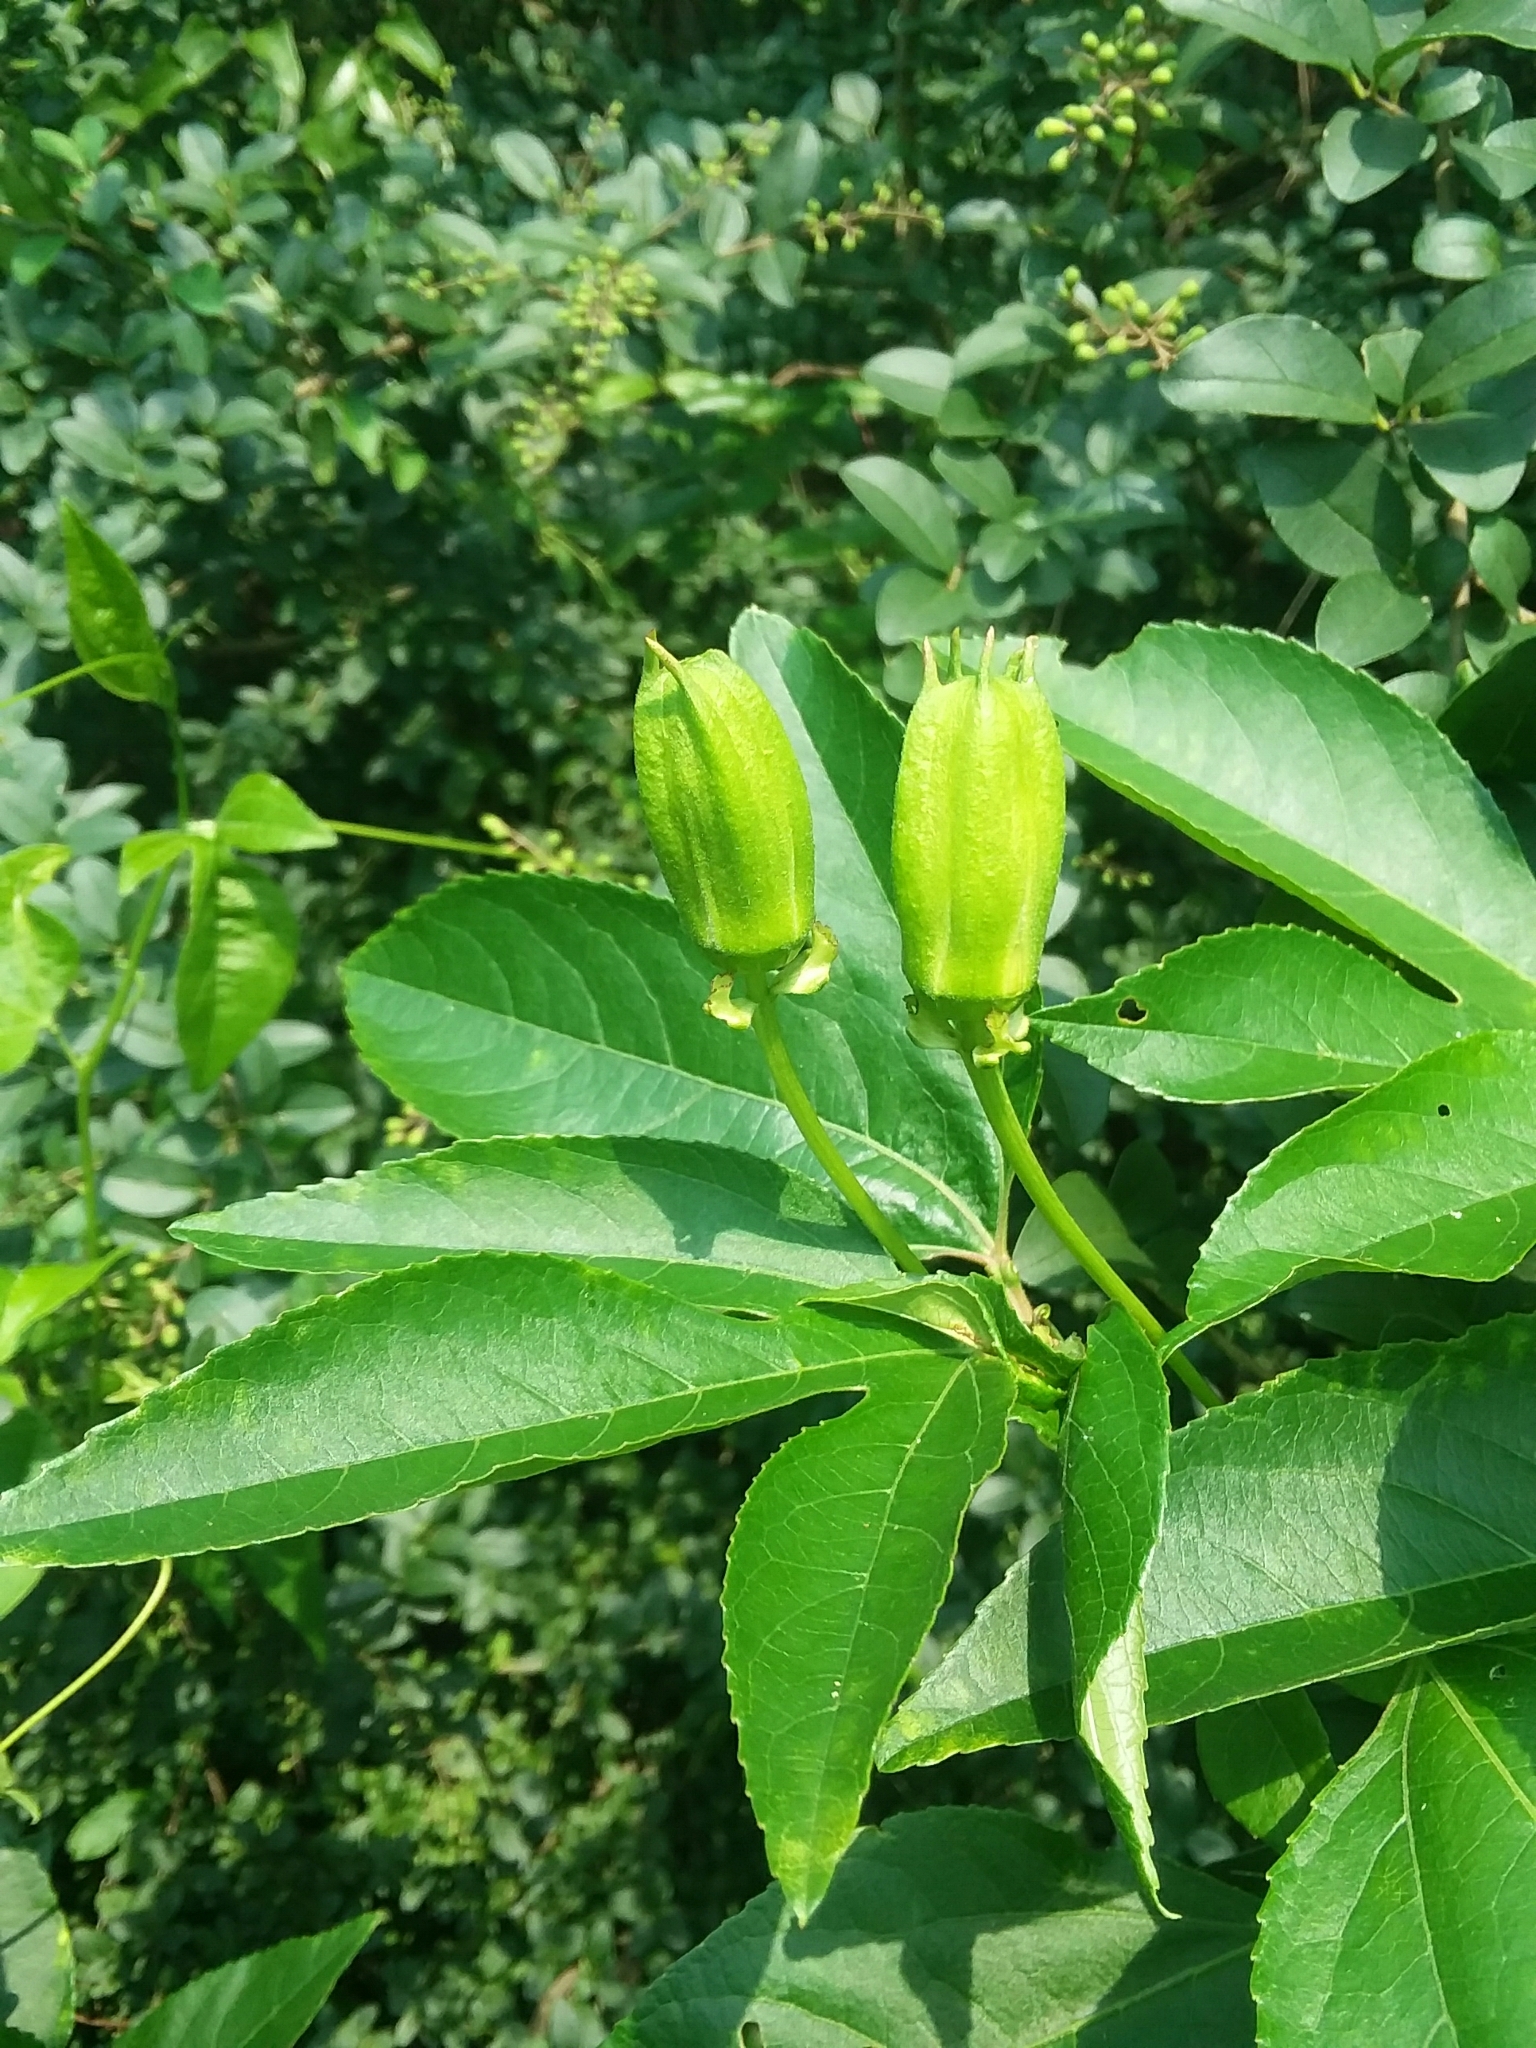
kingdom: Plantae
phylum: Tracheophyta
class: Magnoliopsida
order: Malpighiales
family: Passifloraceae
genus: Passiflora
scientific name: Passiflora incarnata
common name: Apricot-vine
